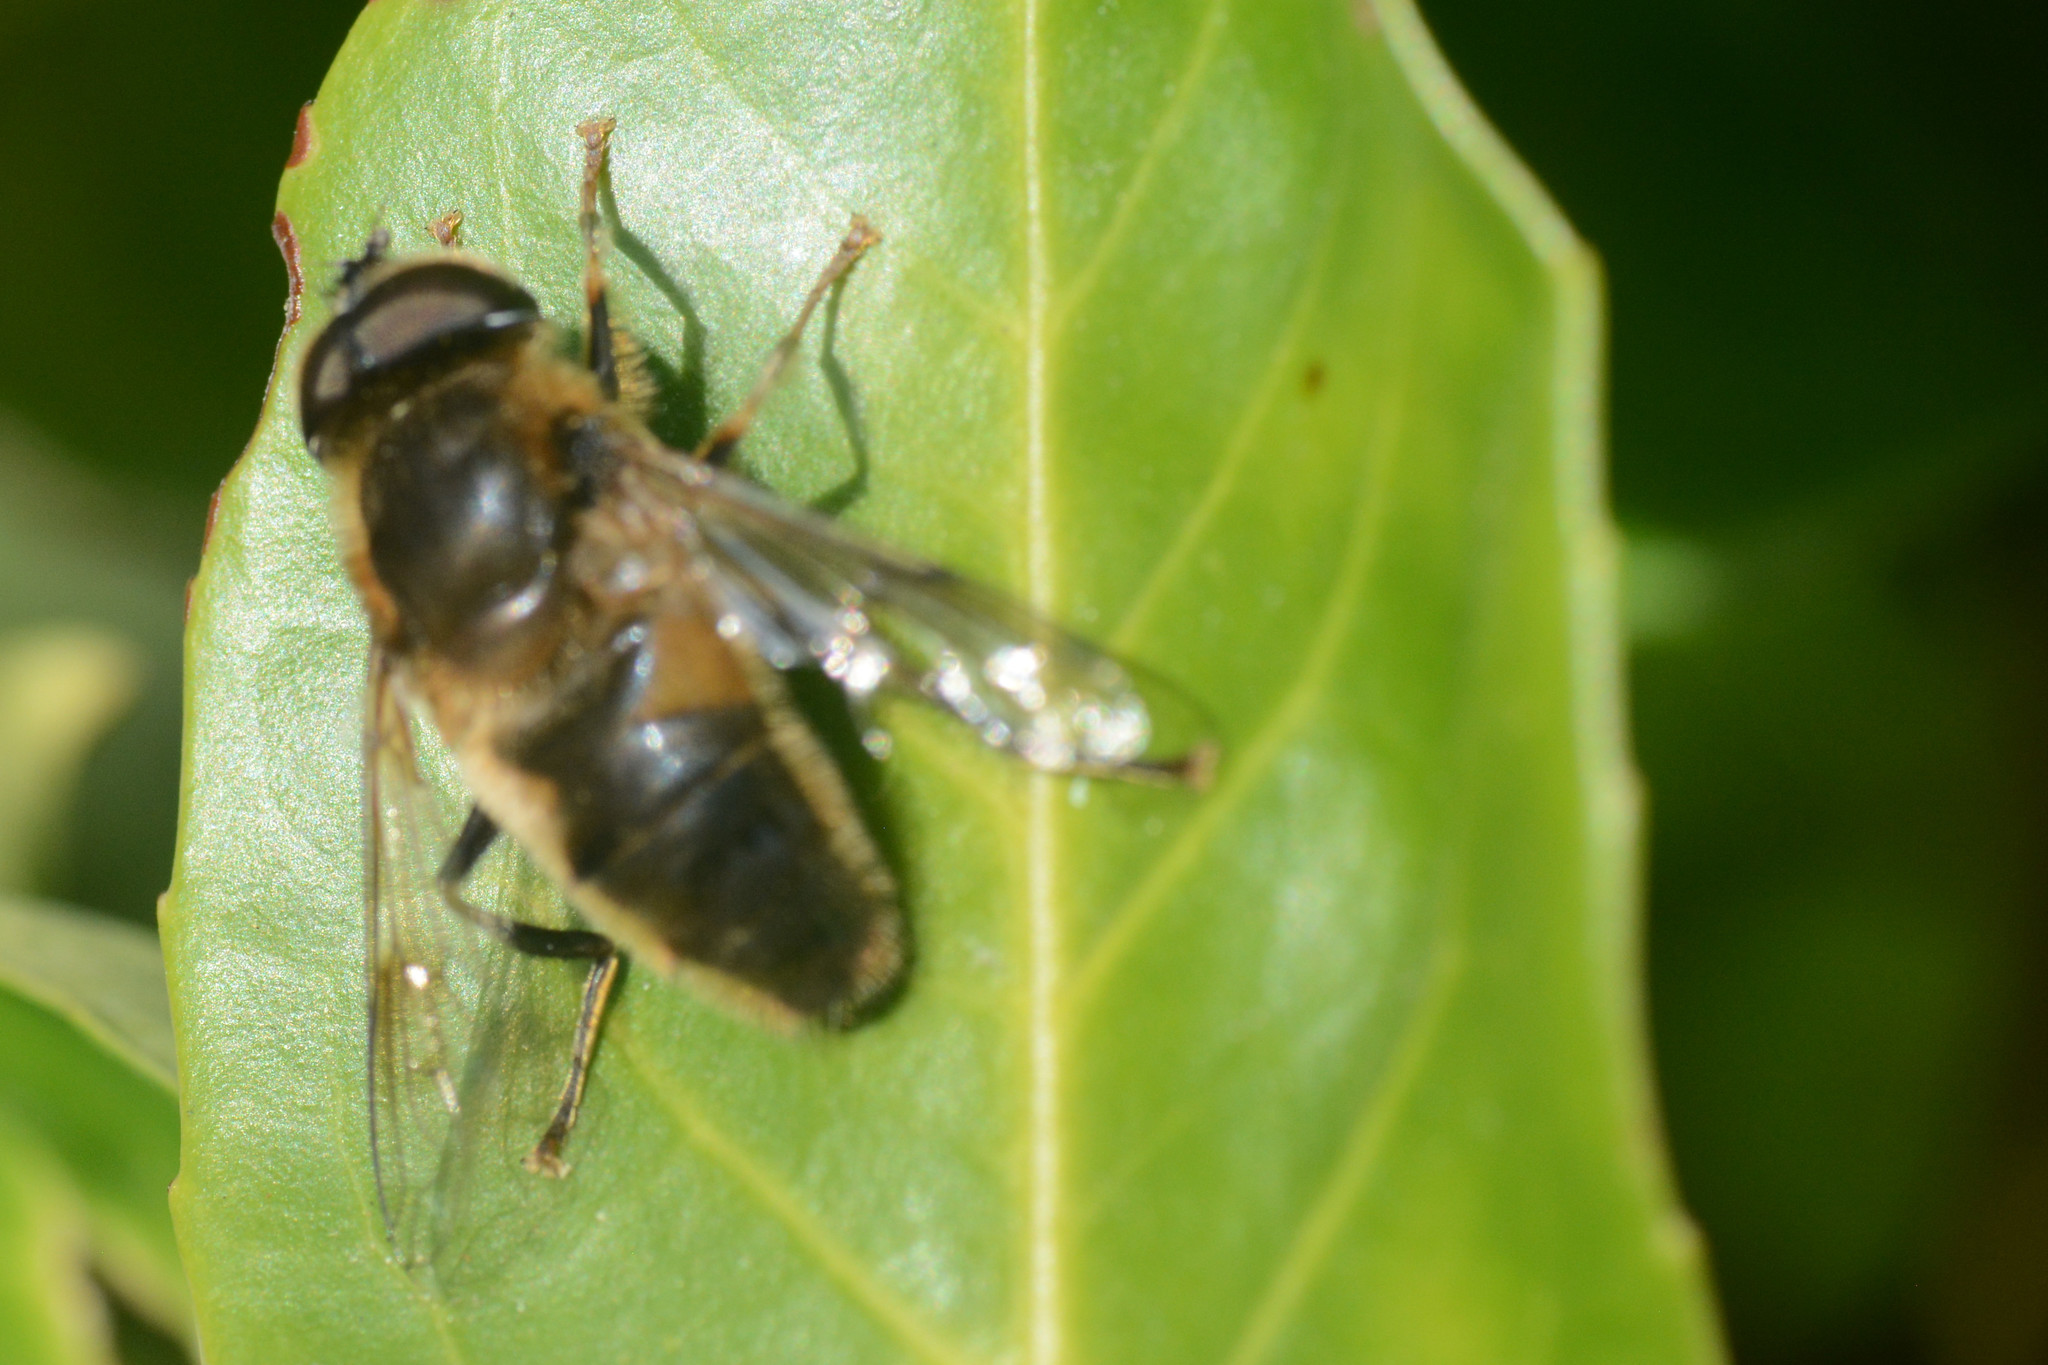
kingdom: Animalia
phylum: Arthropoda
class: Insecta
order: Diptera
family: Syrphidae
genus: Eristalis
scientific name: Eristalis pertinax
